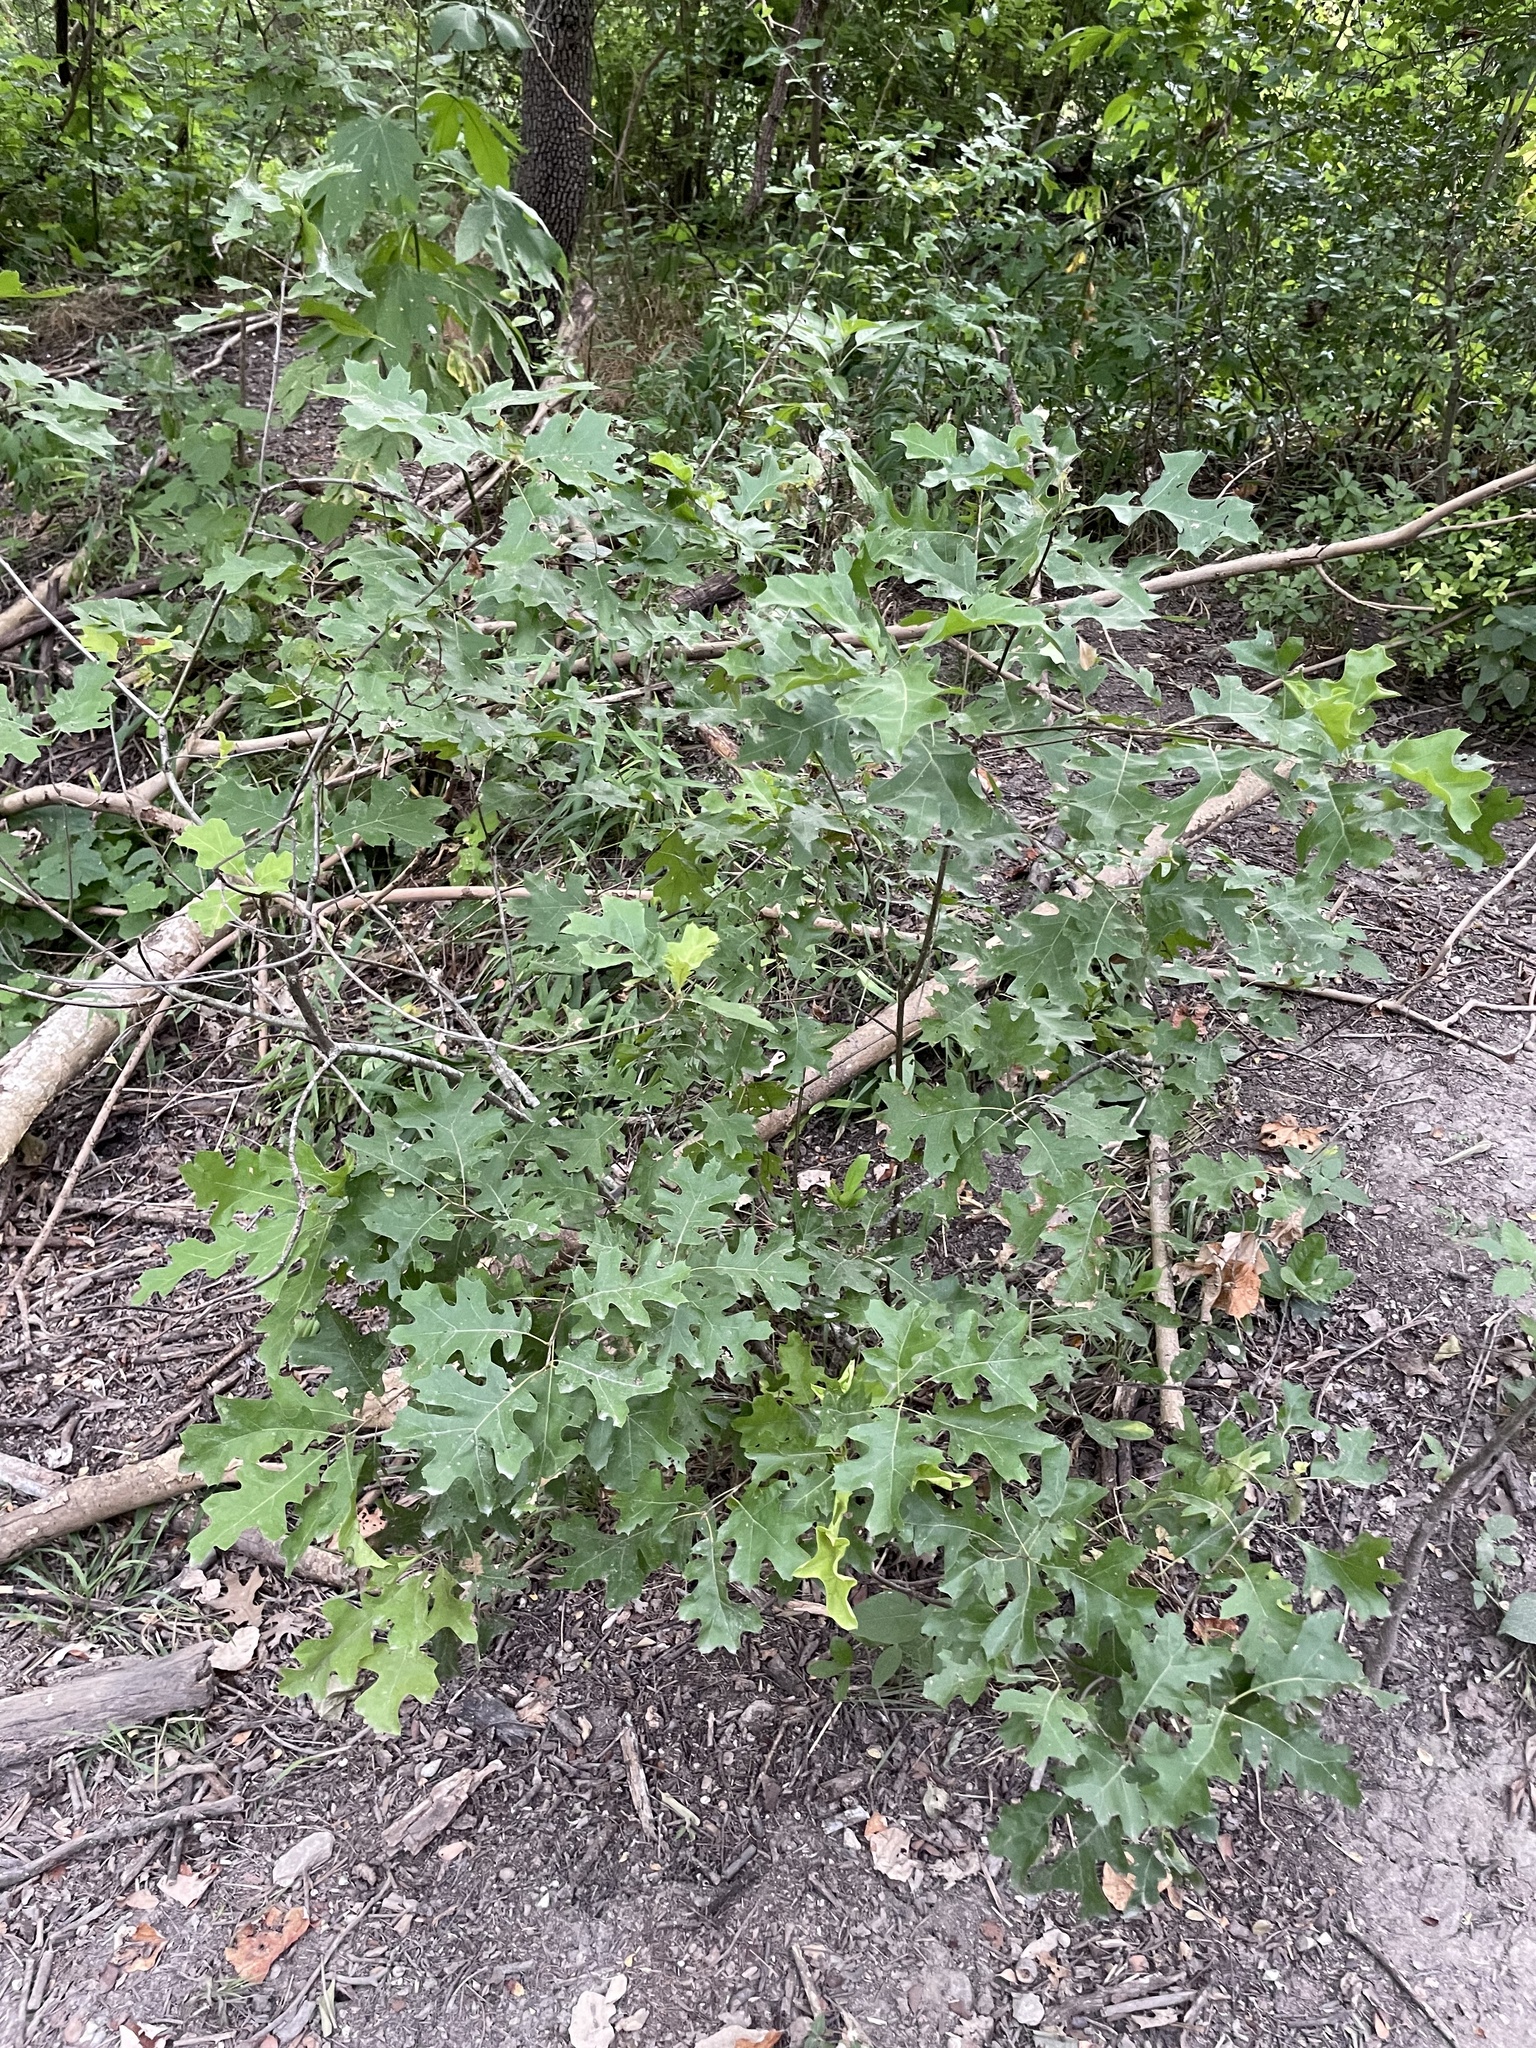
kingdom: Plantae
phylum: Tracheophyta
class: Magnoliopsida
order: Fagales
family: Fagaceae
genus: Quercus
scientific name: Quercus buckleyi
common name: Buckley oak
